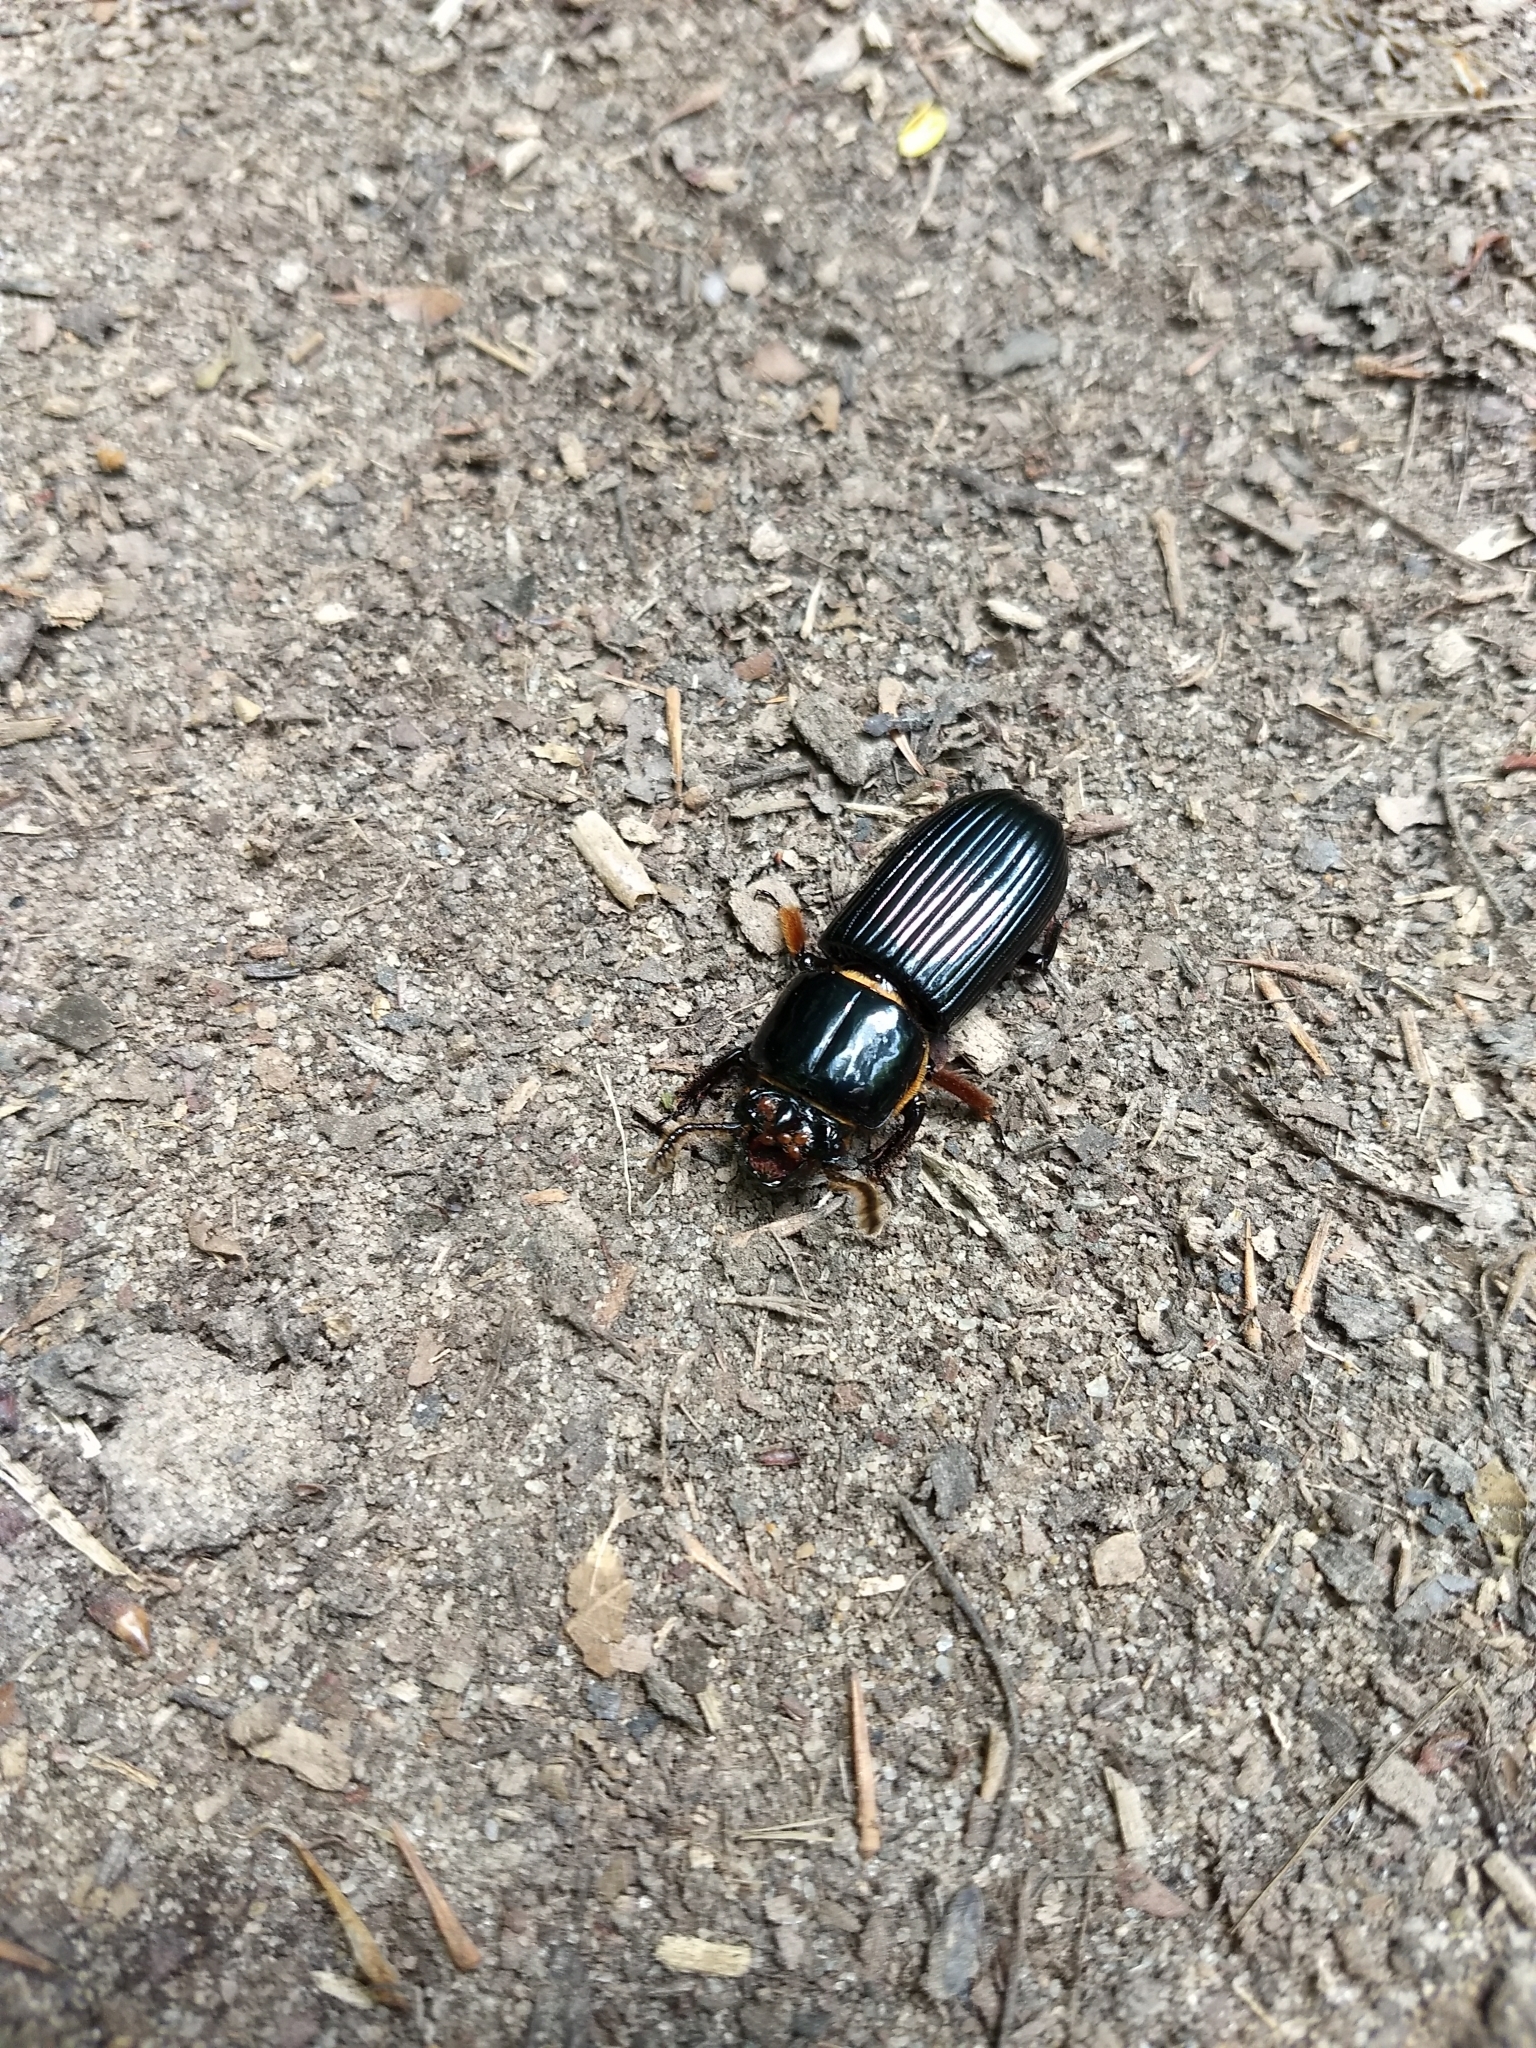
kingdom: Animalia
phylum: Arthropoda
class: Insecta
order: Coleoptera
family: Passalidae
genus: Odontotaenius
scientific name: Odontotaenius disjunctus
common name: Patent leather beetle
